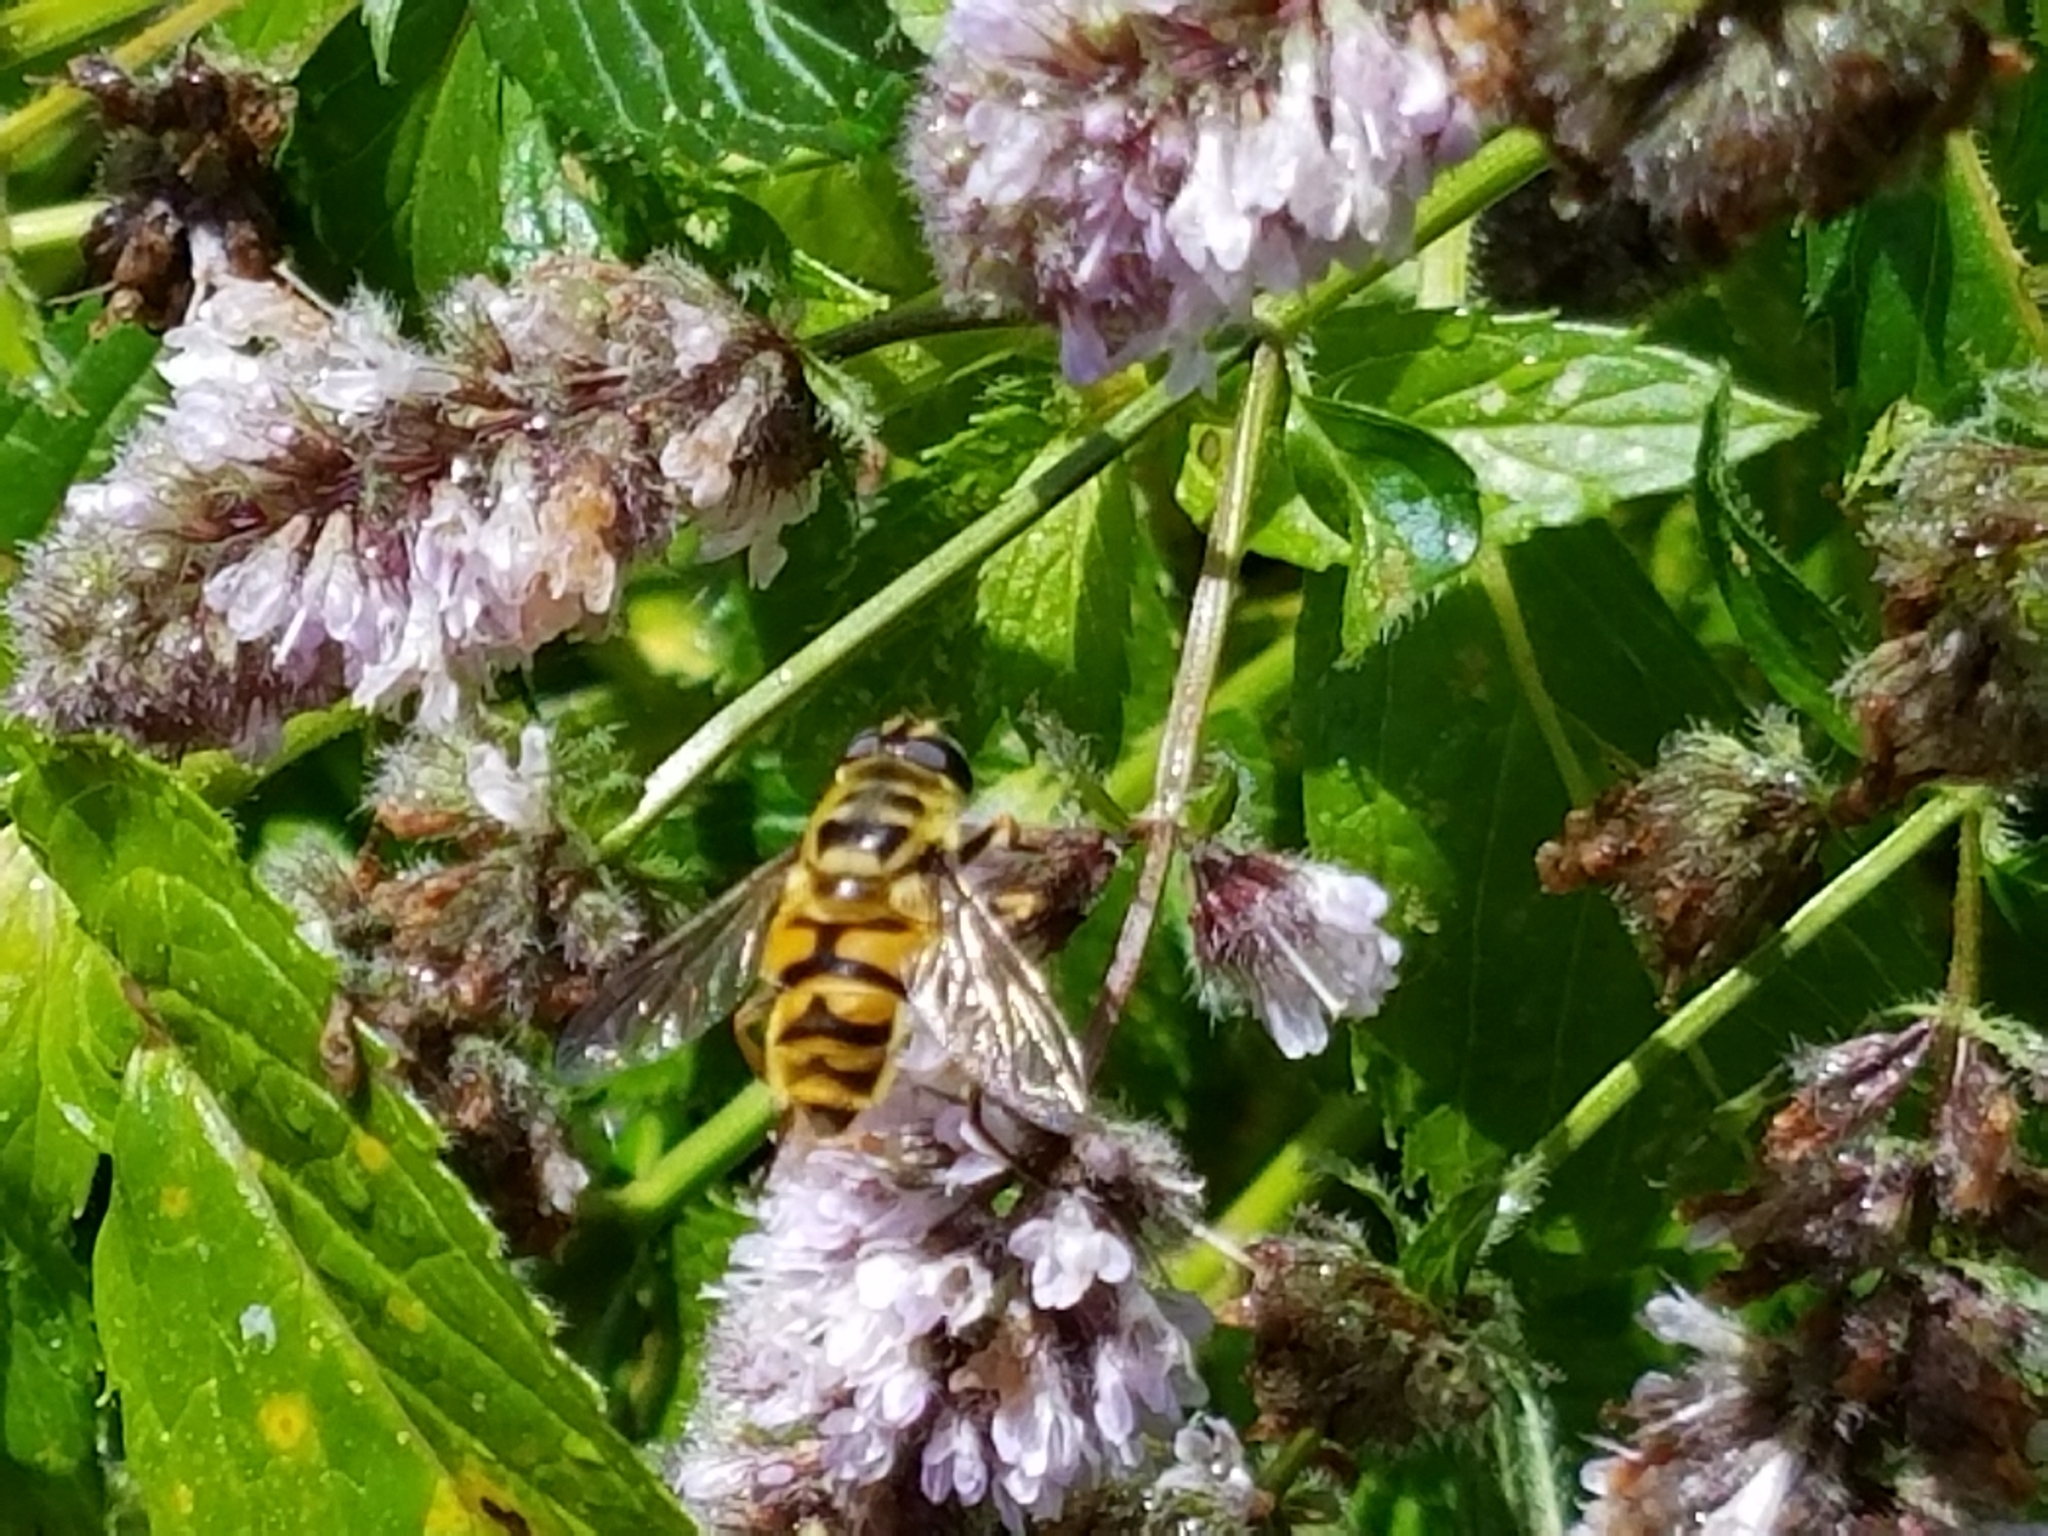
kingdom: Animalia
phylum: Arthropoda
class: Insecta
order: Diptera
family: Syrphidae
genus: Myathropa
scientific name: Myathropa florea
